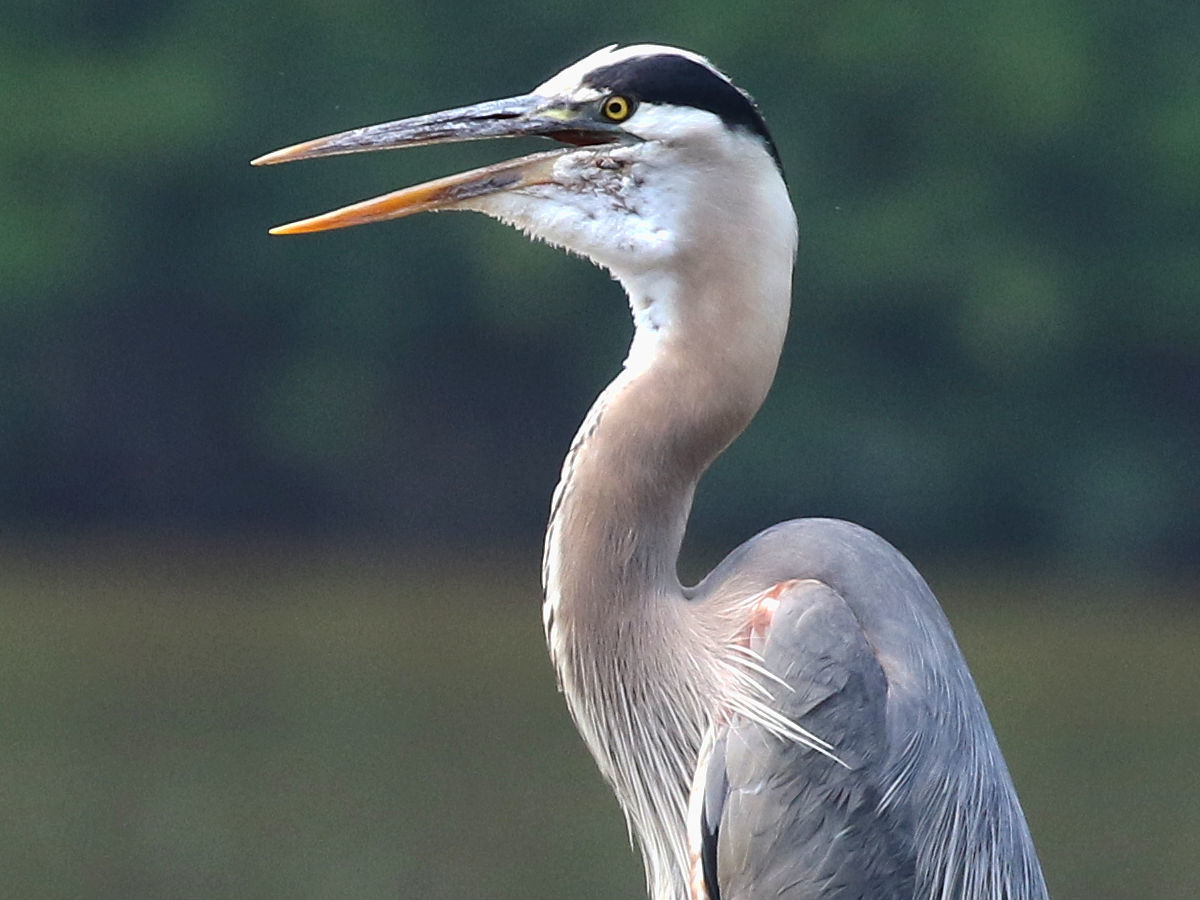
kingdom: Animalia
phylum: Chordata
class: Aves
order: Pelecaniformes
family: Ardeidae
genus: Ardea
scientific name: Ardea herodias
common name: Great blue heron
